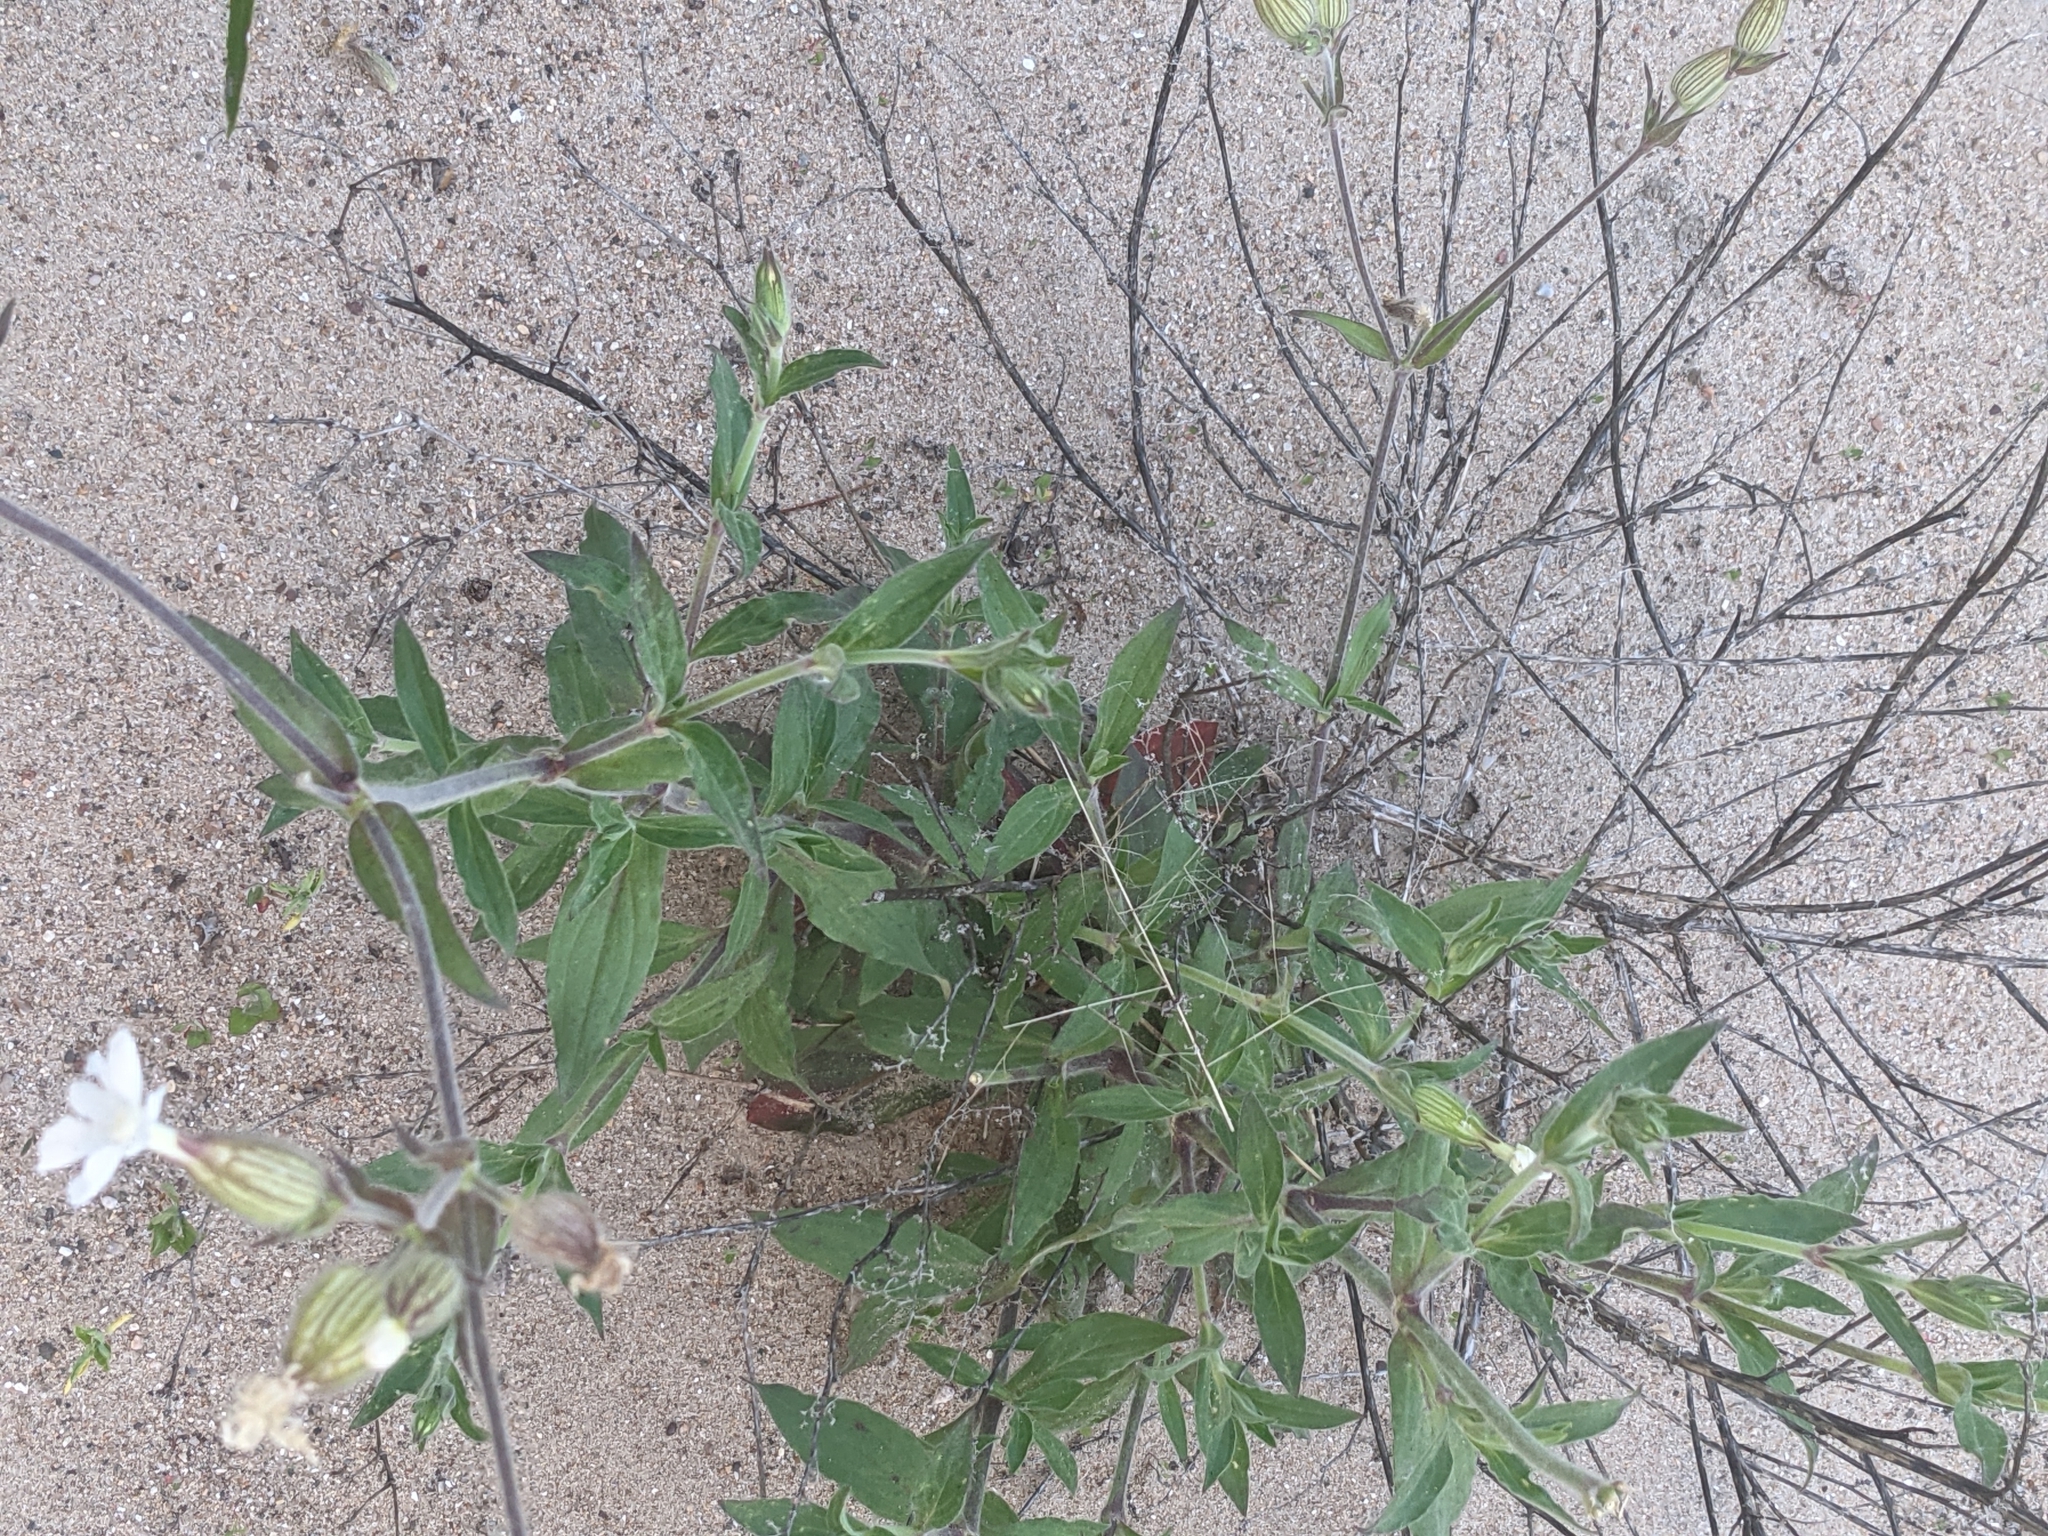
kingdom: Plantae
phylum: Tracheophyta
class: Magnoliopsida
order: Caryophyllales
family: Caryophyllaceae
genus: Silene
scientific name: Silene latifolia
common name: White campion
